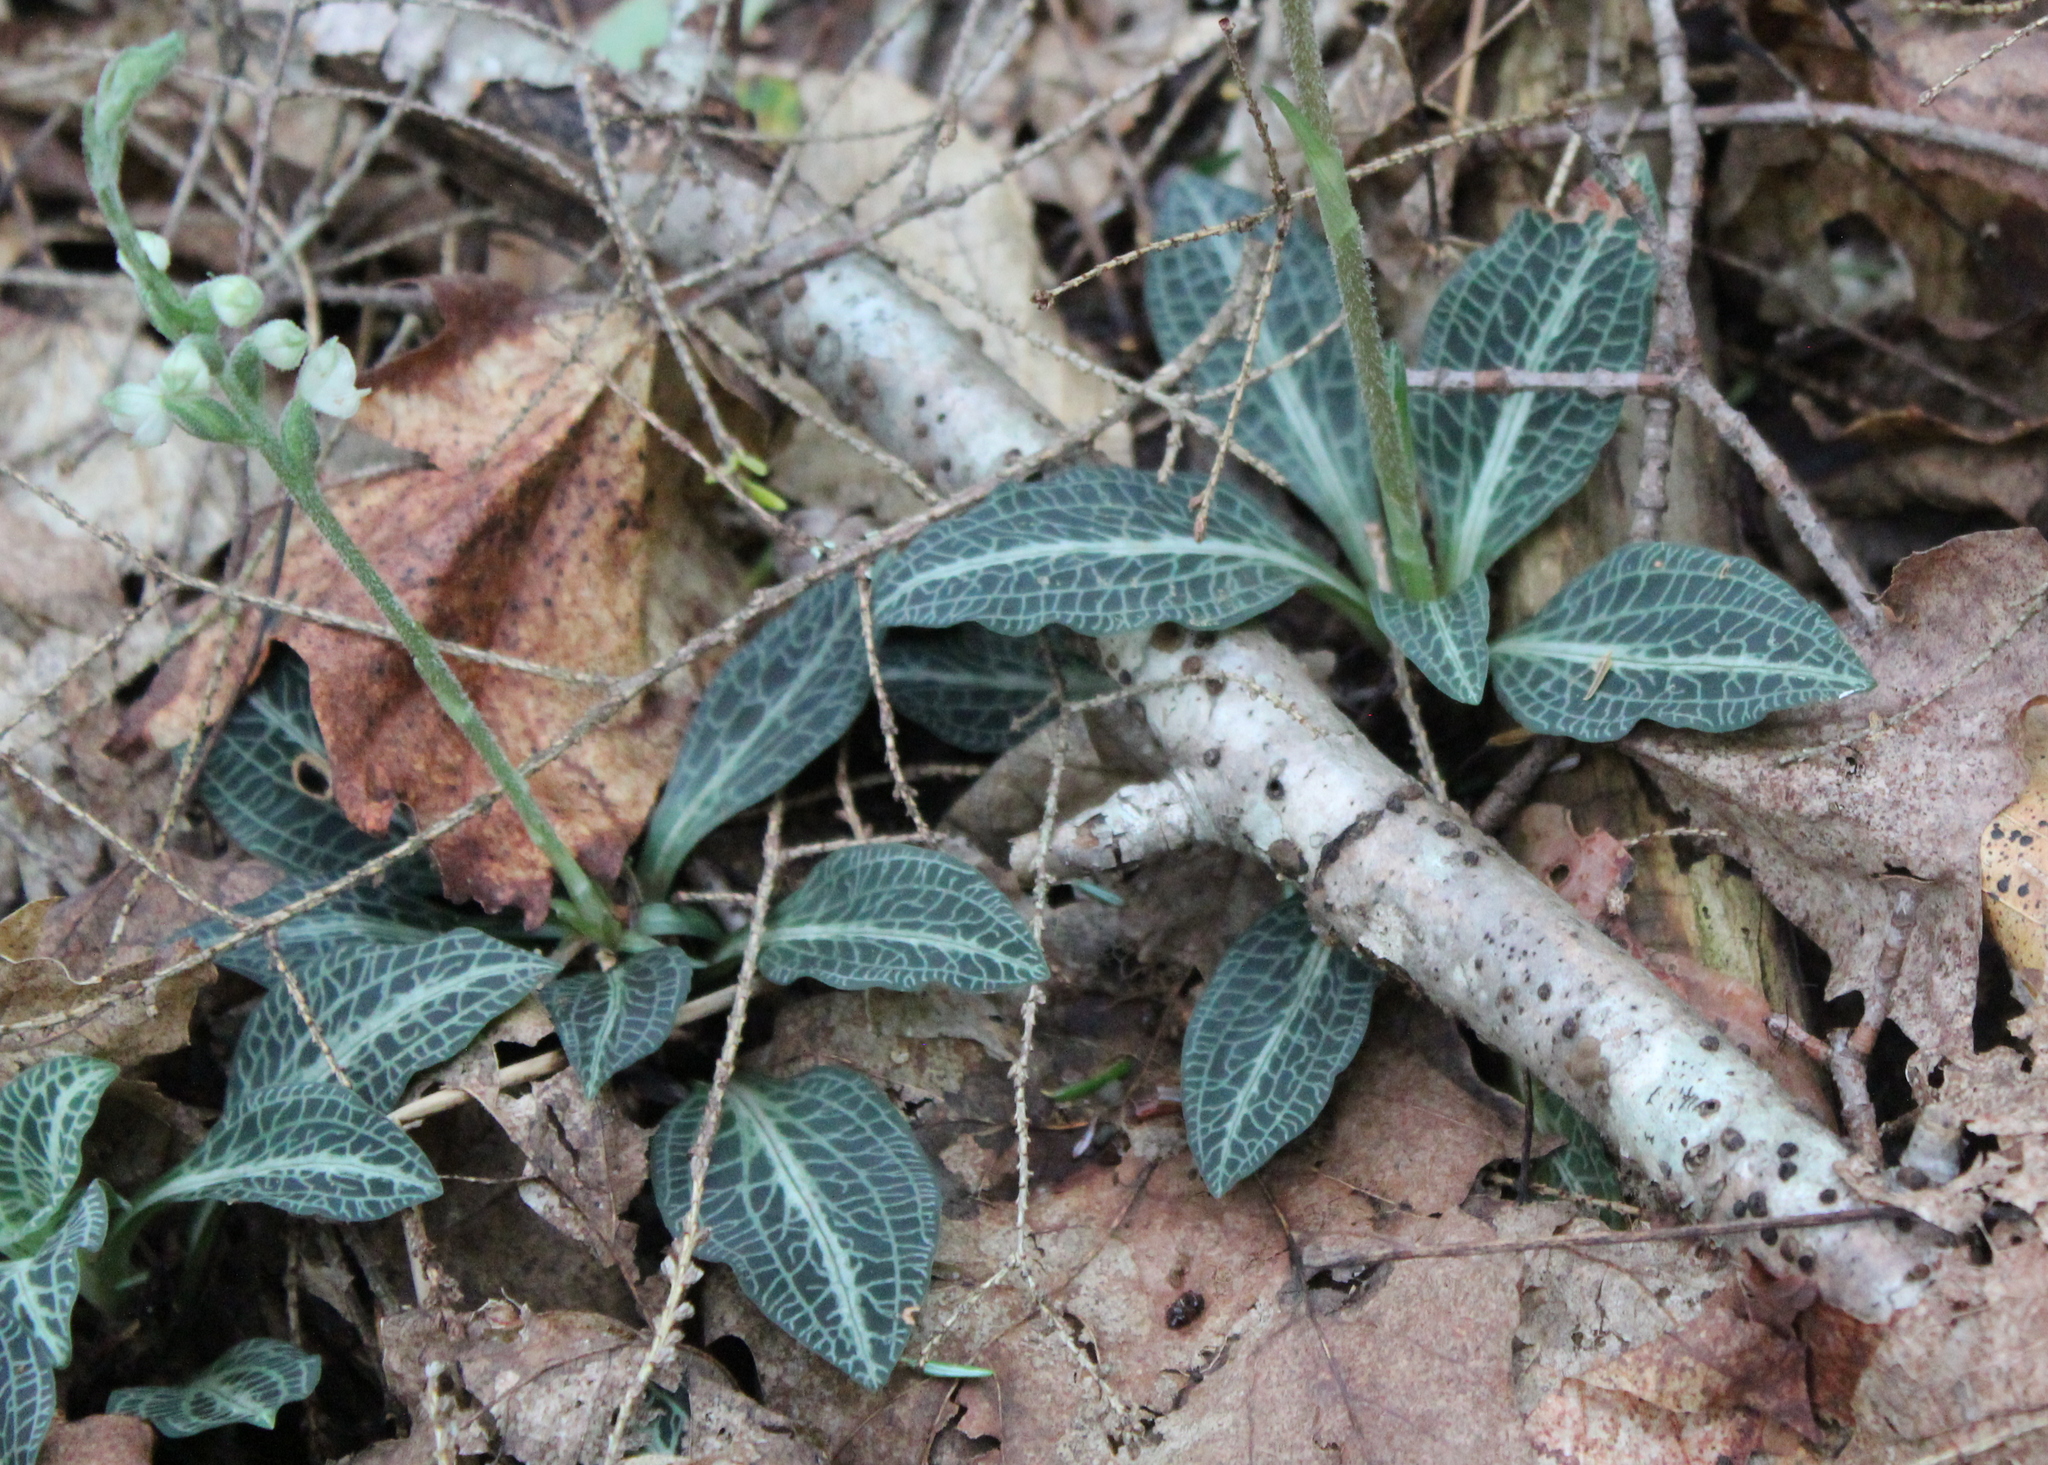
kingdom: Plantae
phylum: Tracheophyta
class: Liliopsida
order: Asparagales
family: Orchidaceae
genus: Goodyera
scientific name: Goodyera pubescens
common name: Downy rattlesnake-plantain
